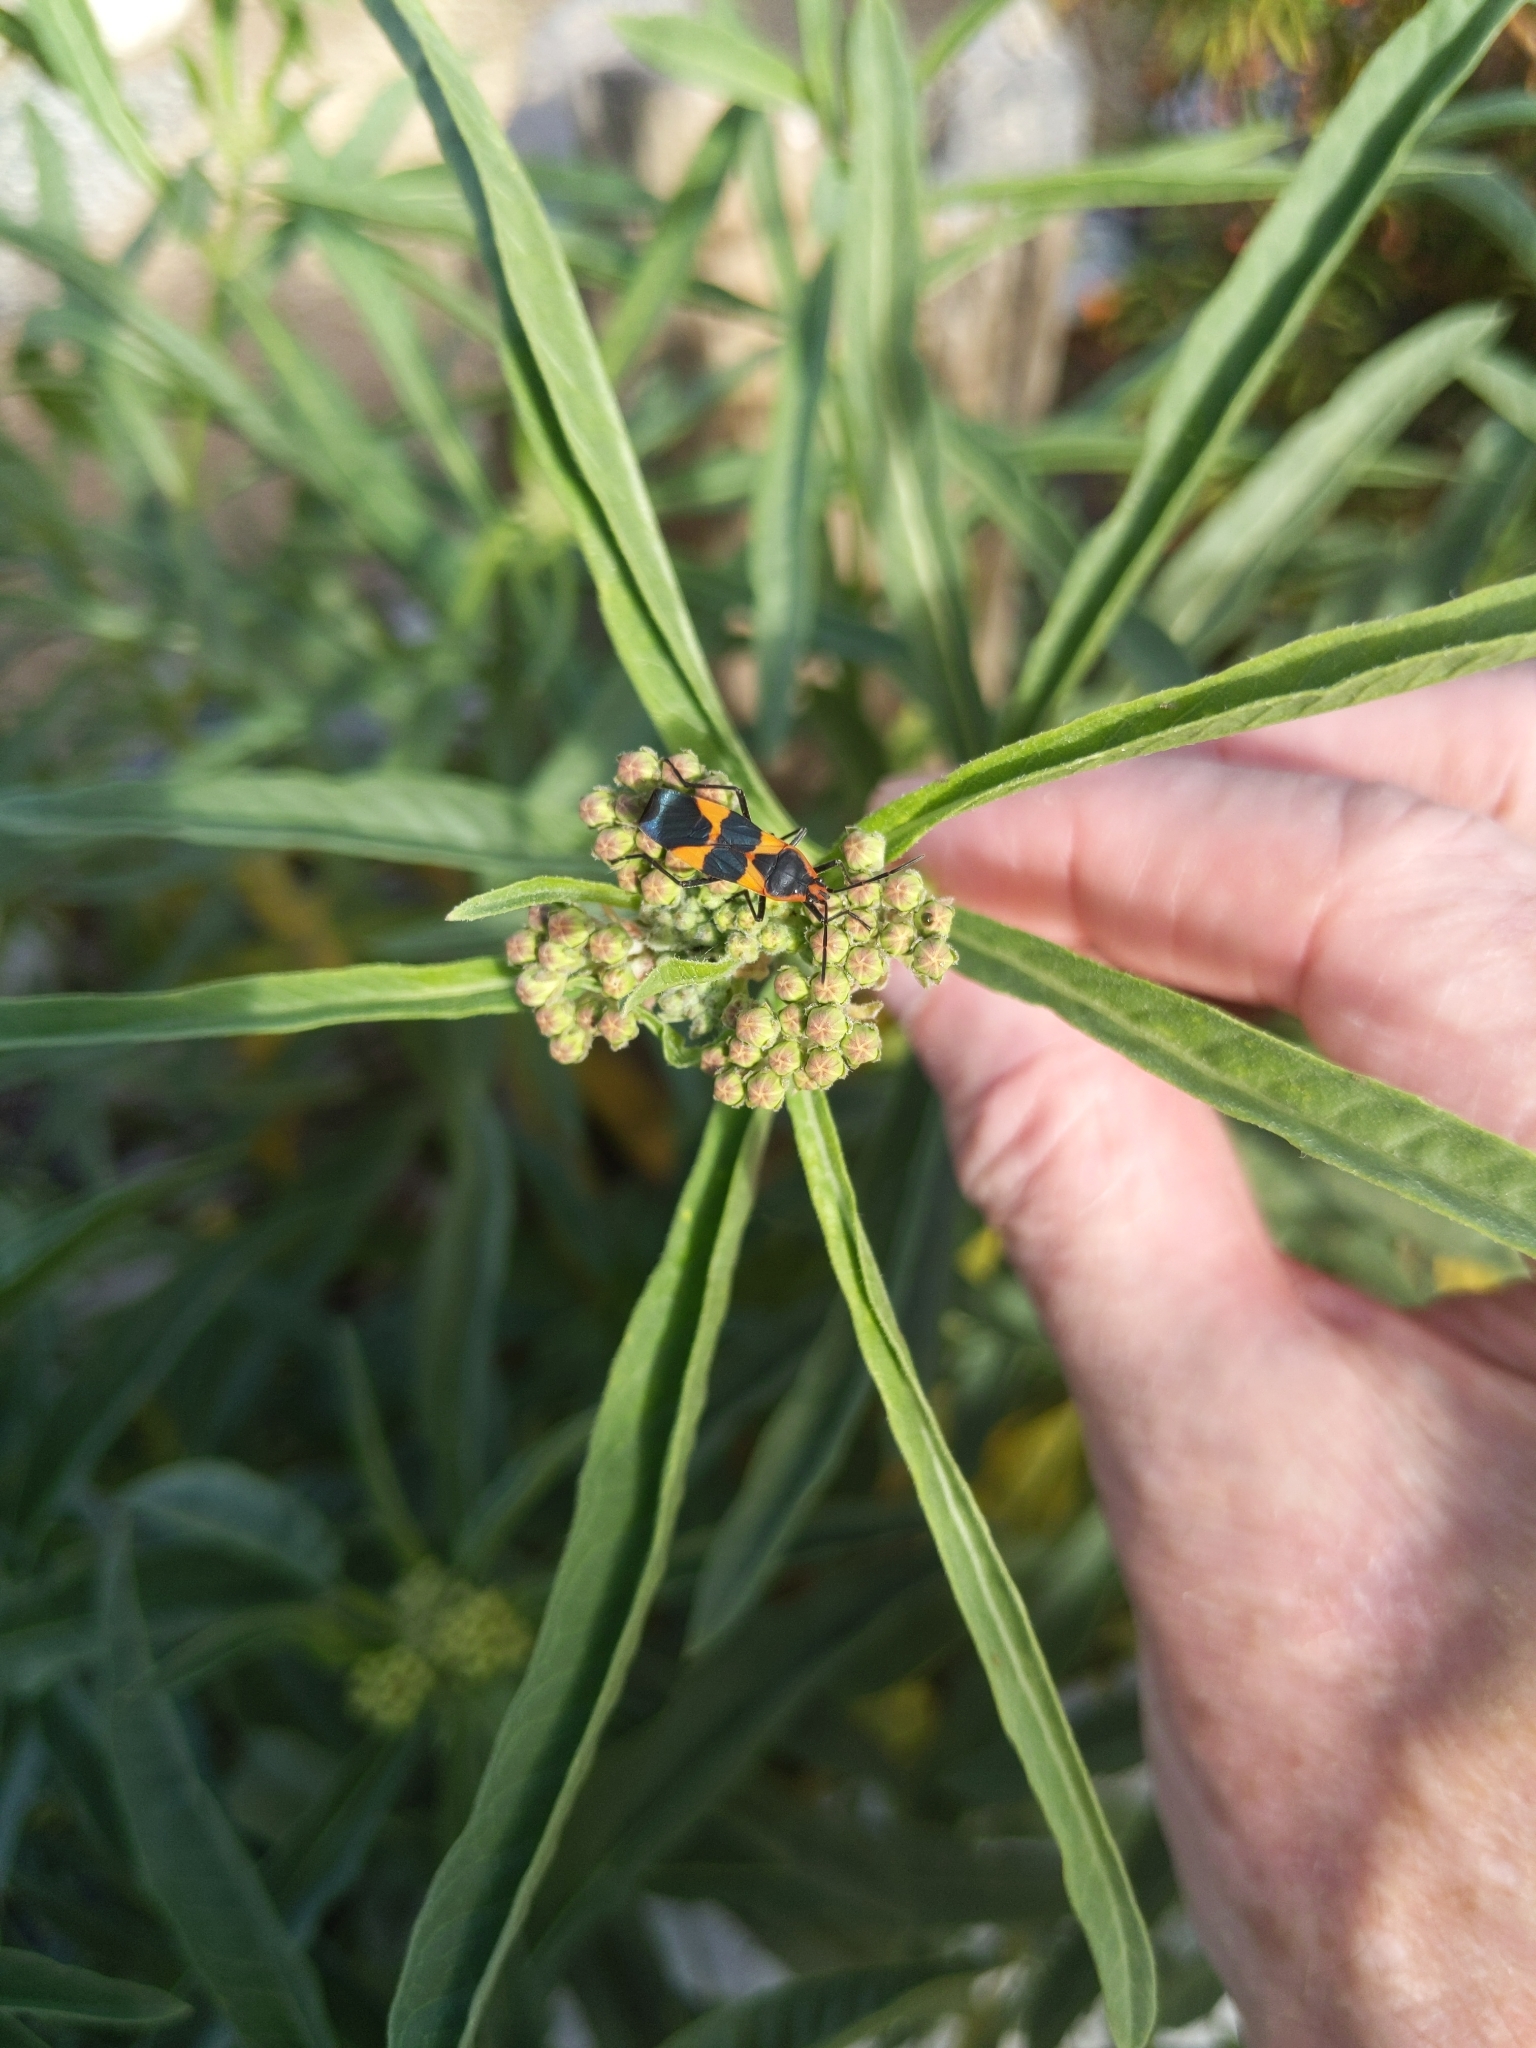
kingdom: Animalia
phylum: Arthropoda
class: Insecta
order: Hemiptera
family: Lygaeidae
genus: Oncopeltus
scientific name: Oncopeltus fasciatus
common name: Large milkweed bug
